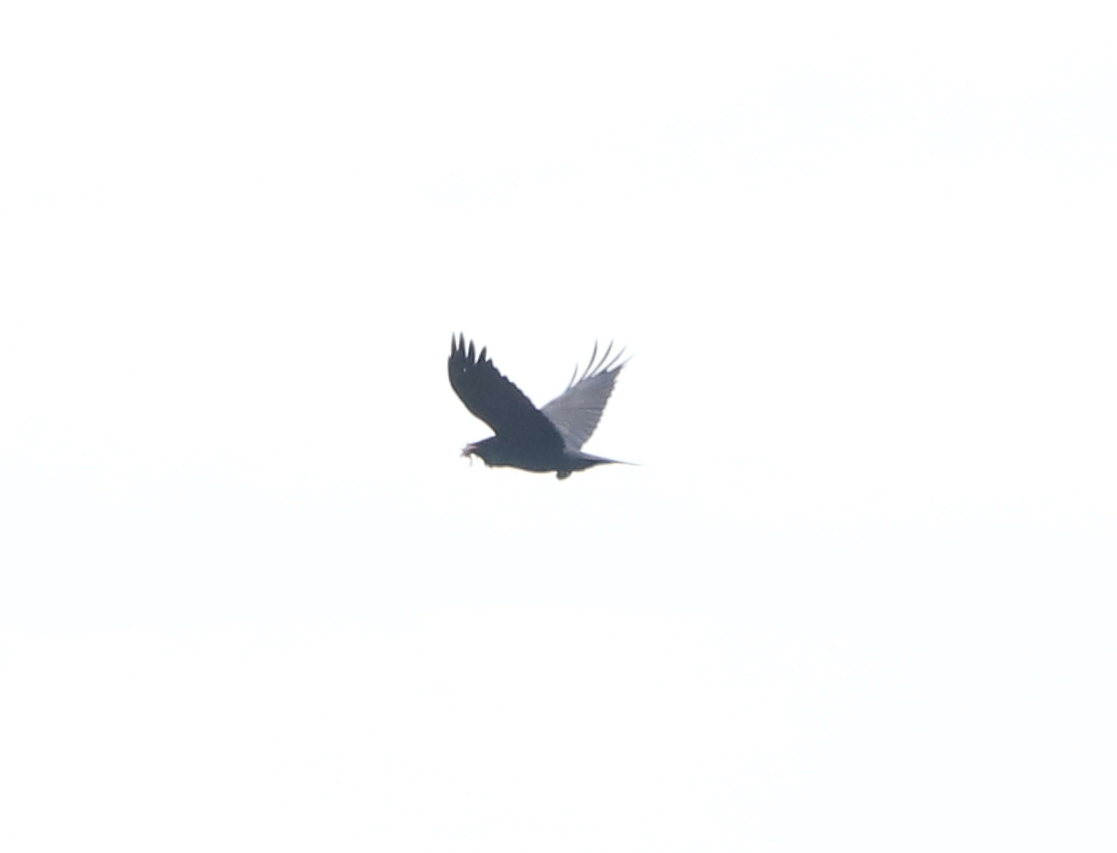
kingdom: Animalia
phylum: Chordata
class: Aves
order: Passeriformes
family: Corvidae
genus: Corvus
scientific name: Corvus
